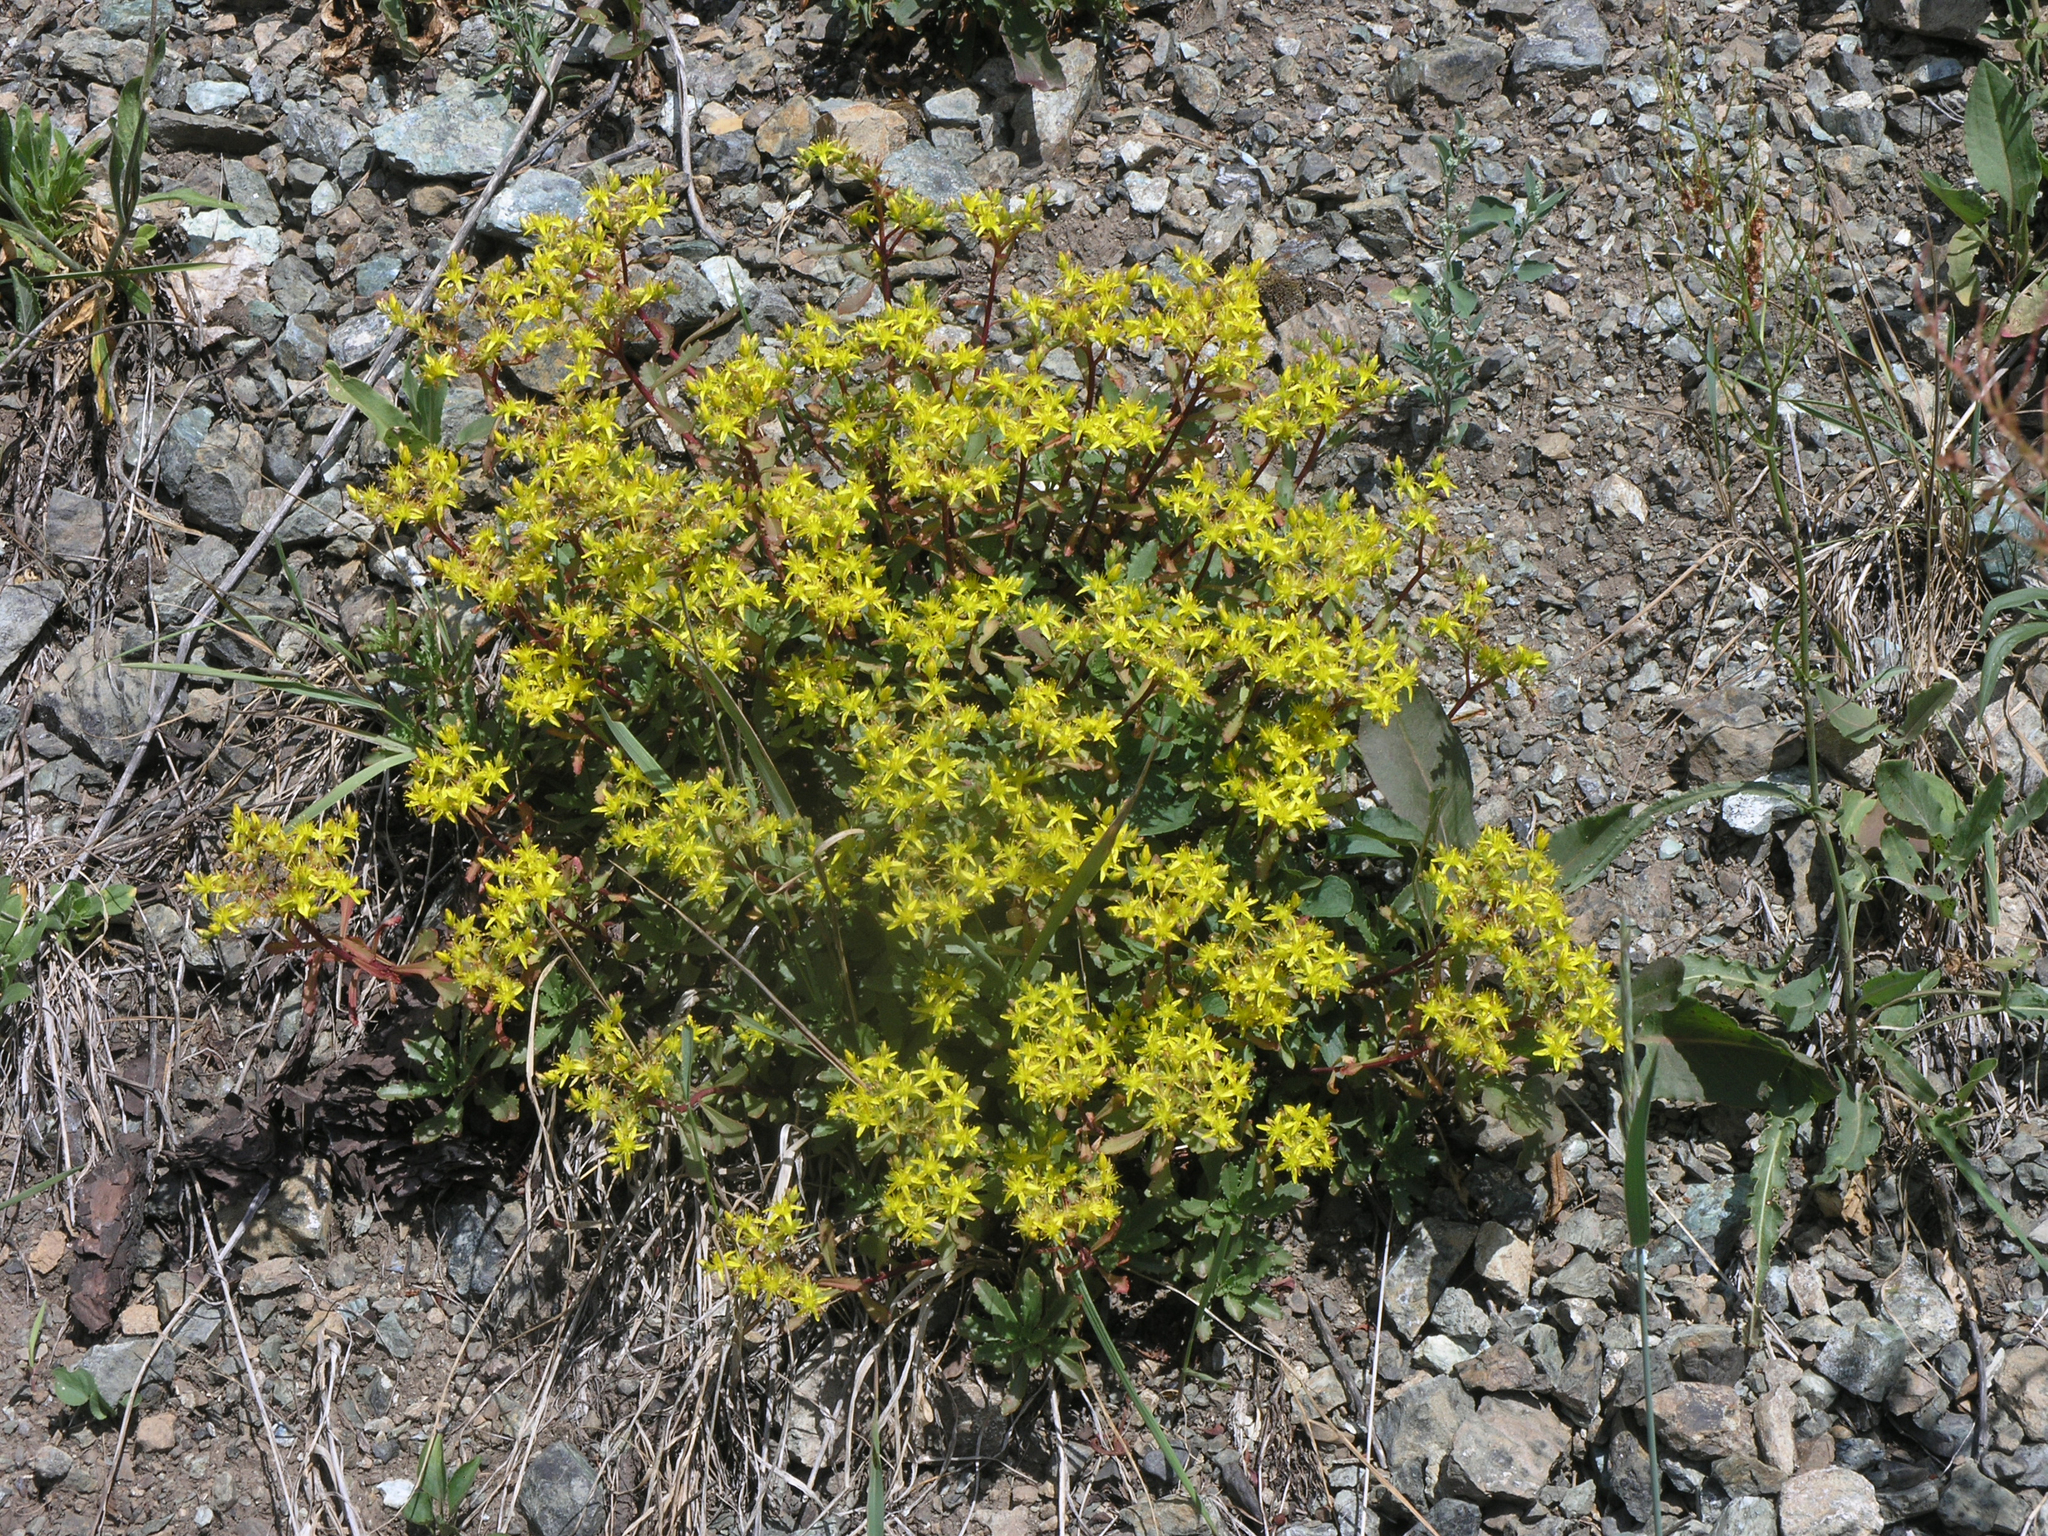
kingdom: Plantae
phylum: Tracheophyta
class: Magnoliopsida
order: Saxifragales
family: Crassulaceae
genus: Phedimus
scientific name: Phedimus hybridus
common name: Hybrid stonecrop
